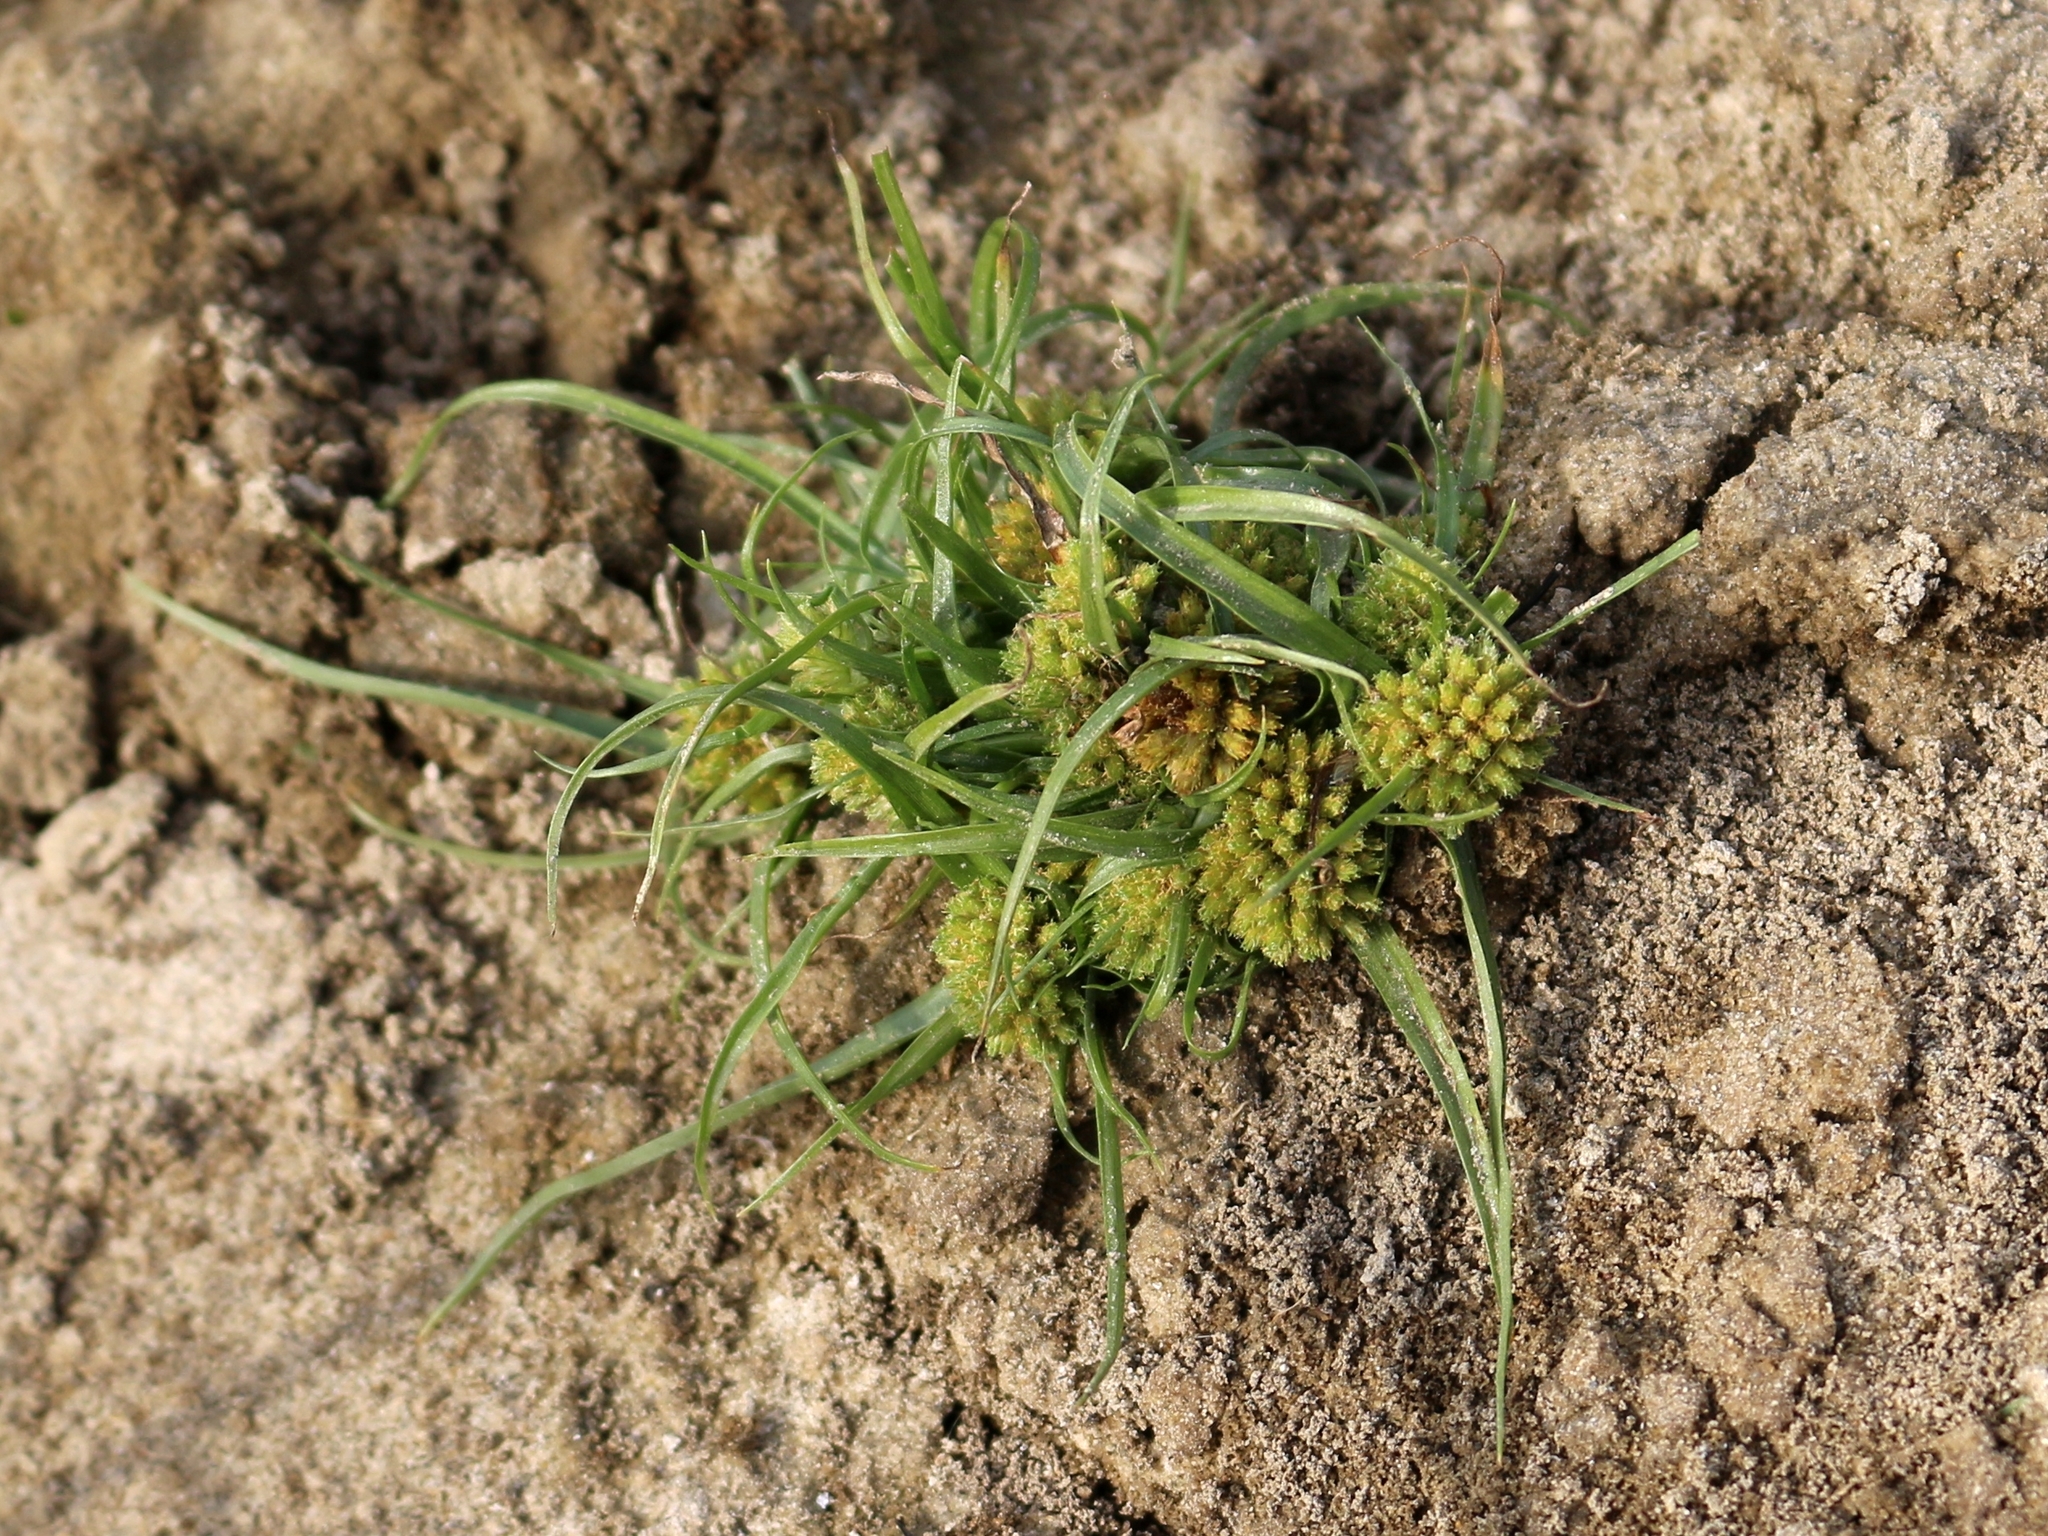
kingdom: Plantae
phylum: Tracheophyta
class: Liliopsida
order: Poales
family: Cyperaceae
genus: Cyperus
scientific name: Cyperus michelianus
